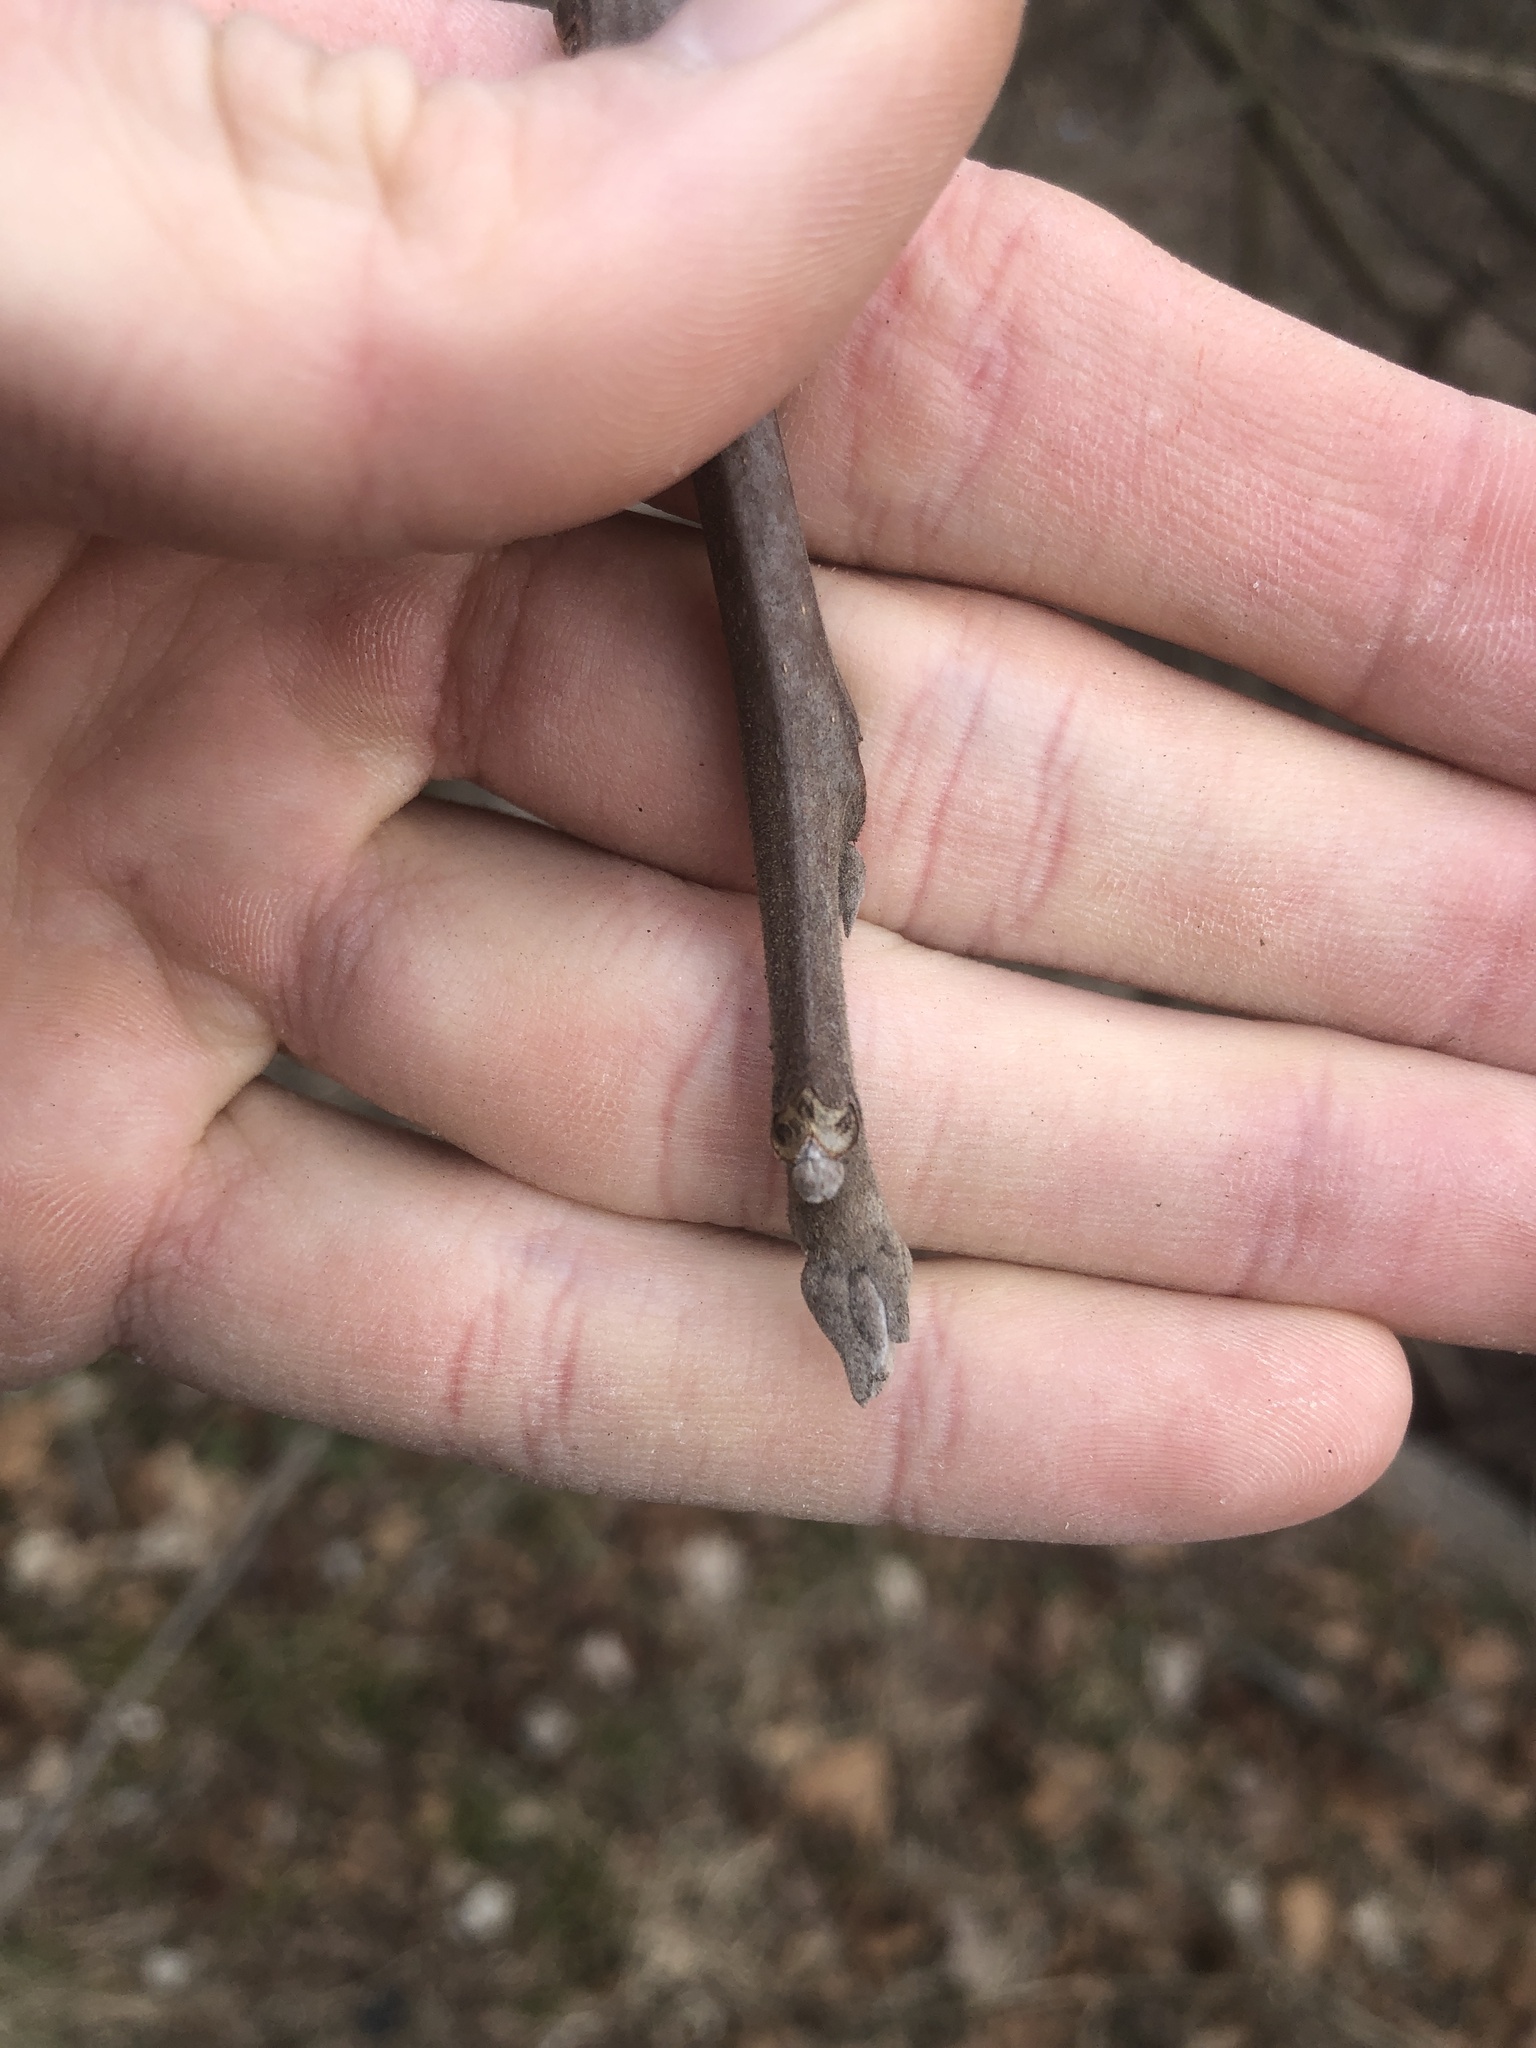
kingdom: Plantae
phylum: Tracheophyta
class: Magnoliopsida
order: Fagales
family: Juglandaceae
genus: Juglans
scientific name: Juglans nigra
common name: Black walnut
